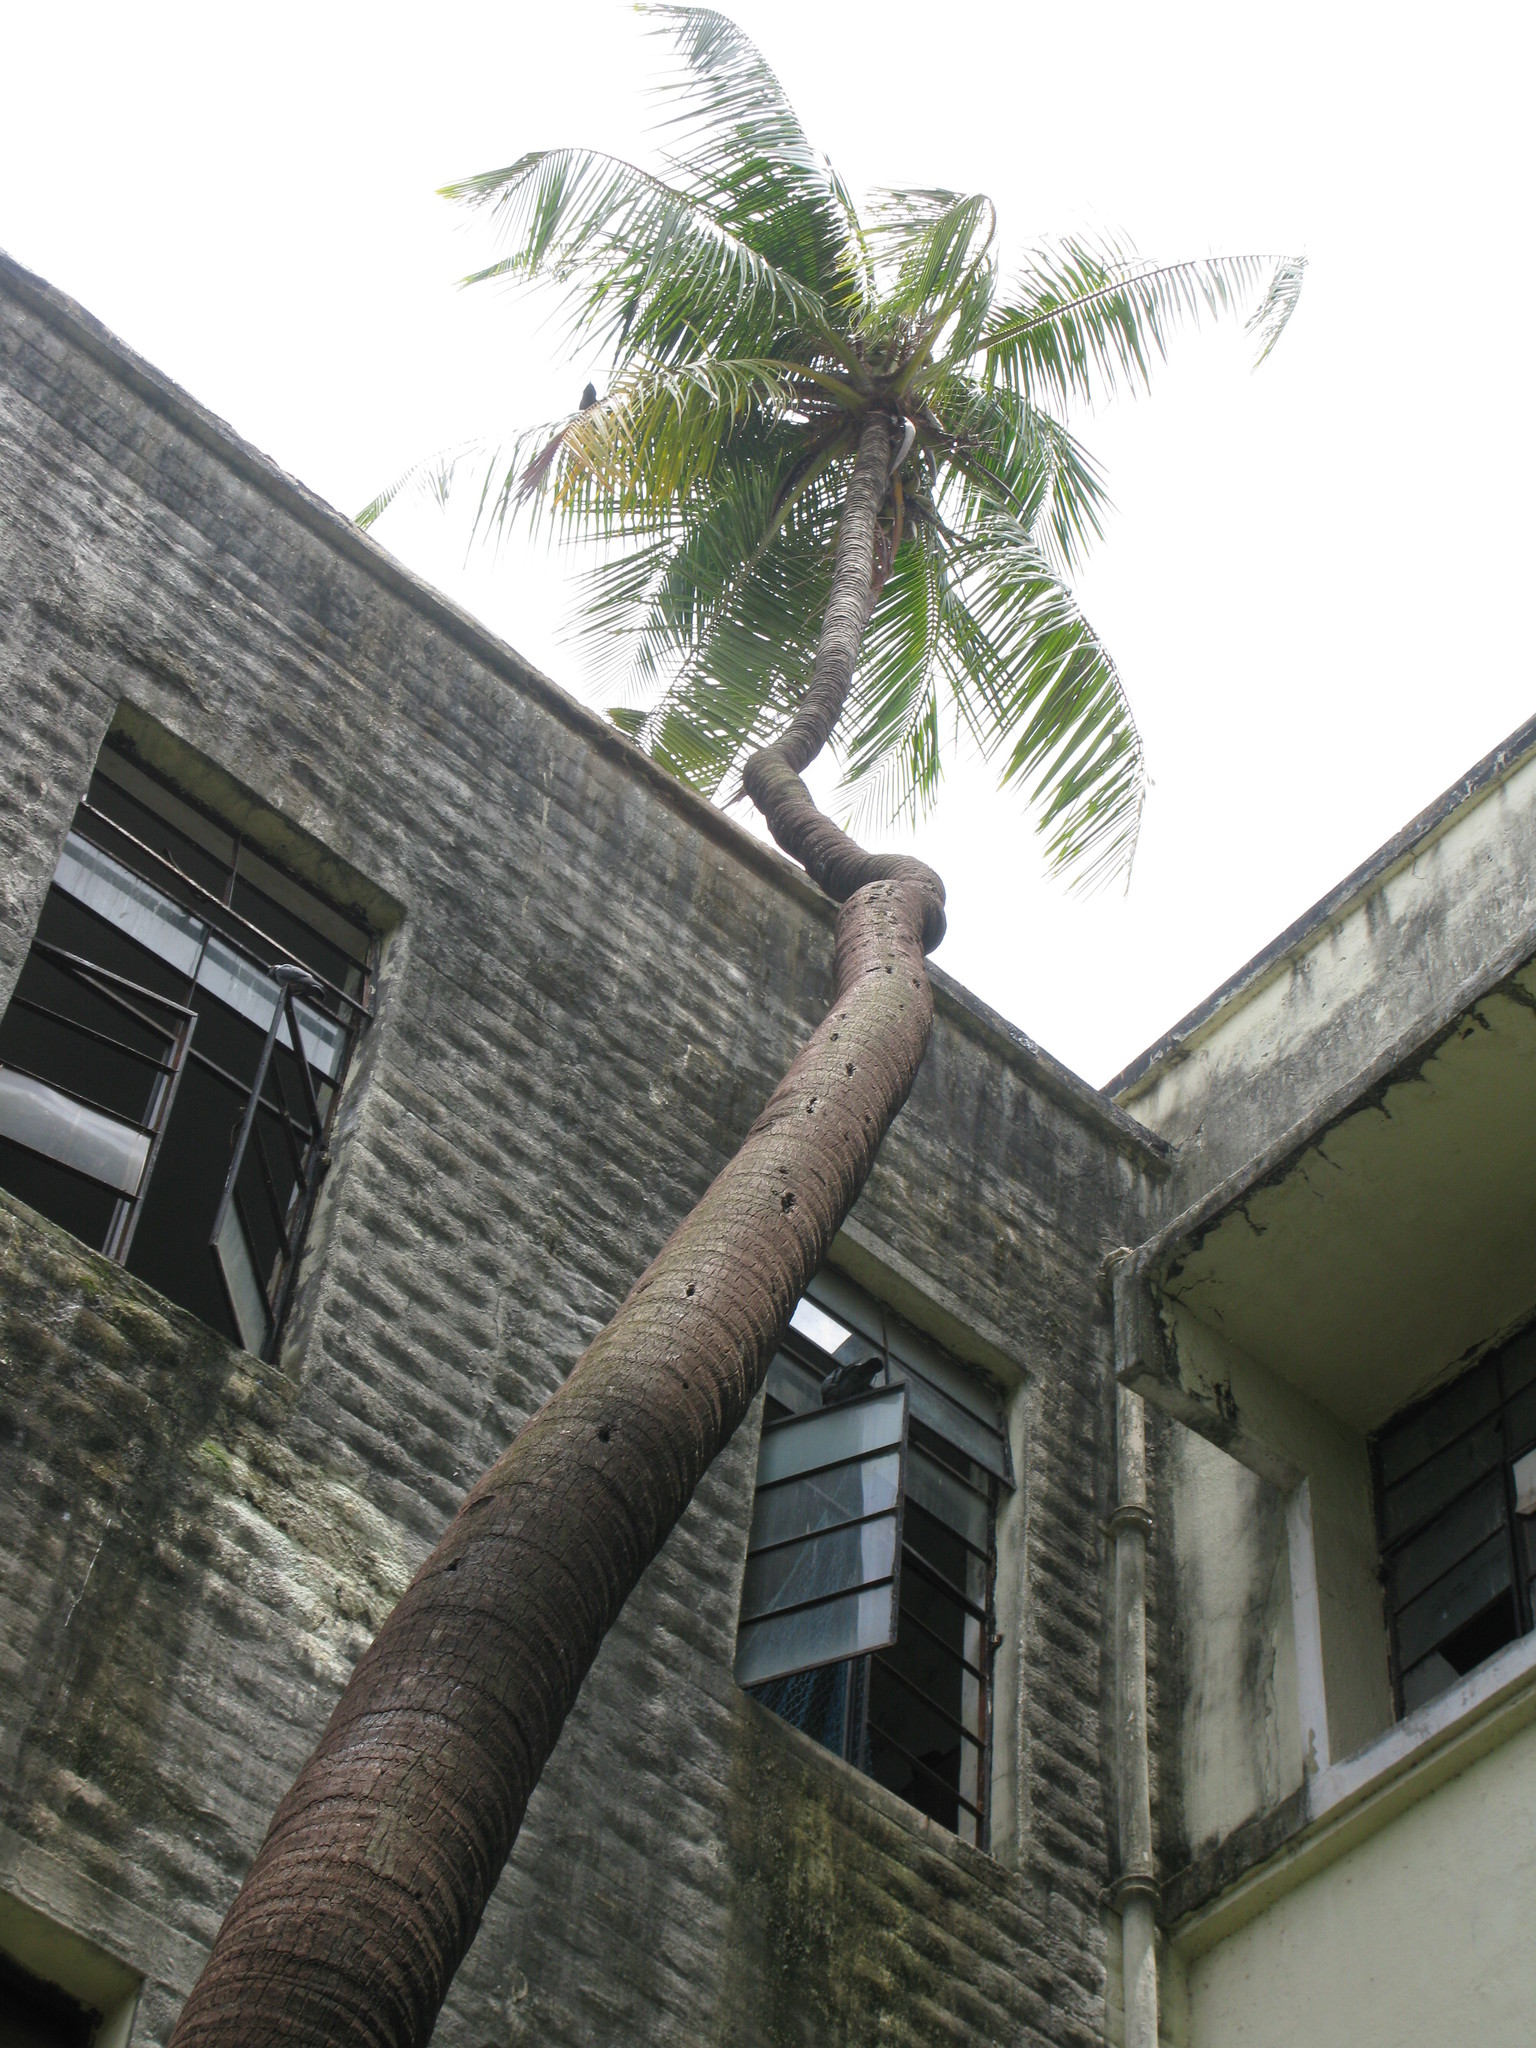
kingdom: Plantae
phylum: Tracheophyta
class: Liliopsida
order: Arecales
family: Arecaceae
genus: Cocos
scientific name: Cocos nucifera
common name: Coconut palm
